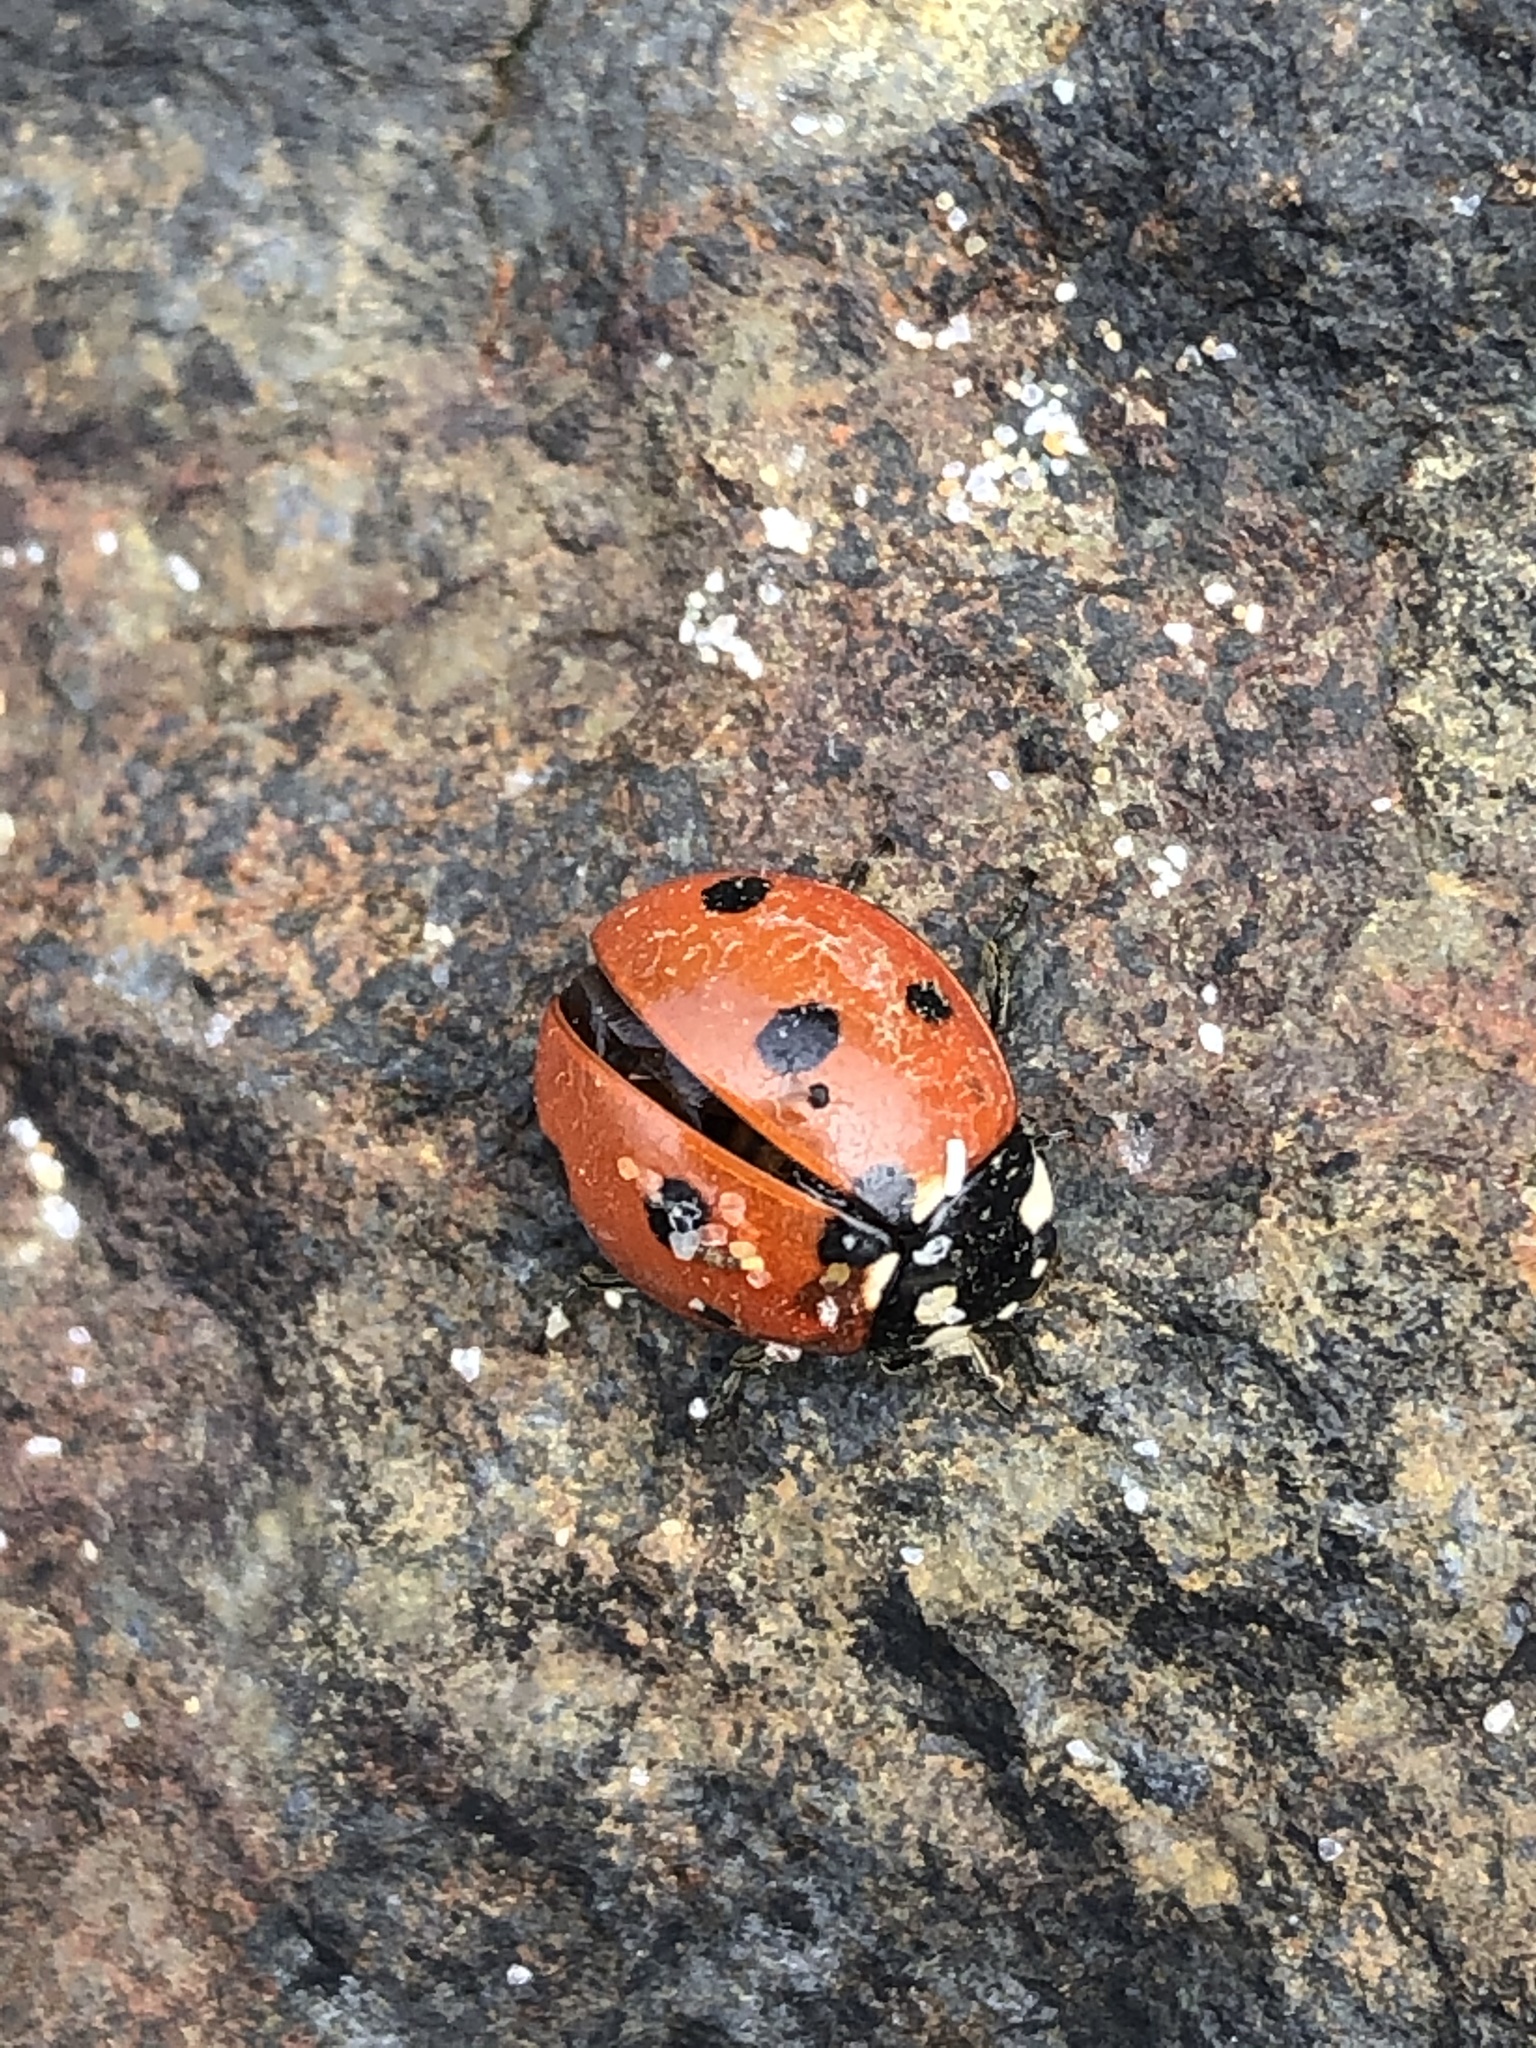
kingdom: Animalia
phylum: Arthropoda
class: Insecta
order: Coleoptera
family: Coccinellidae
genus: Coccinella
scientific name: Coccinella septempunctata
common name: Sevenspotted lady beetle
